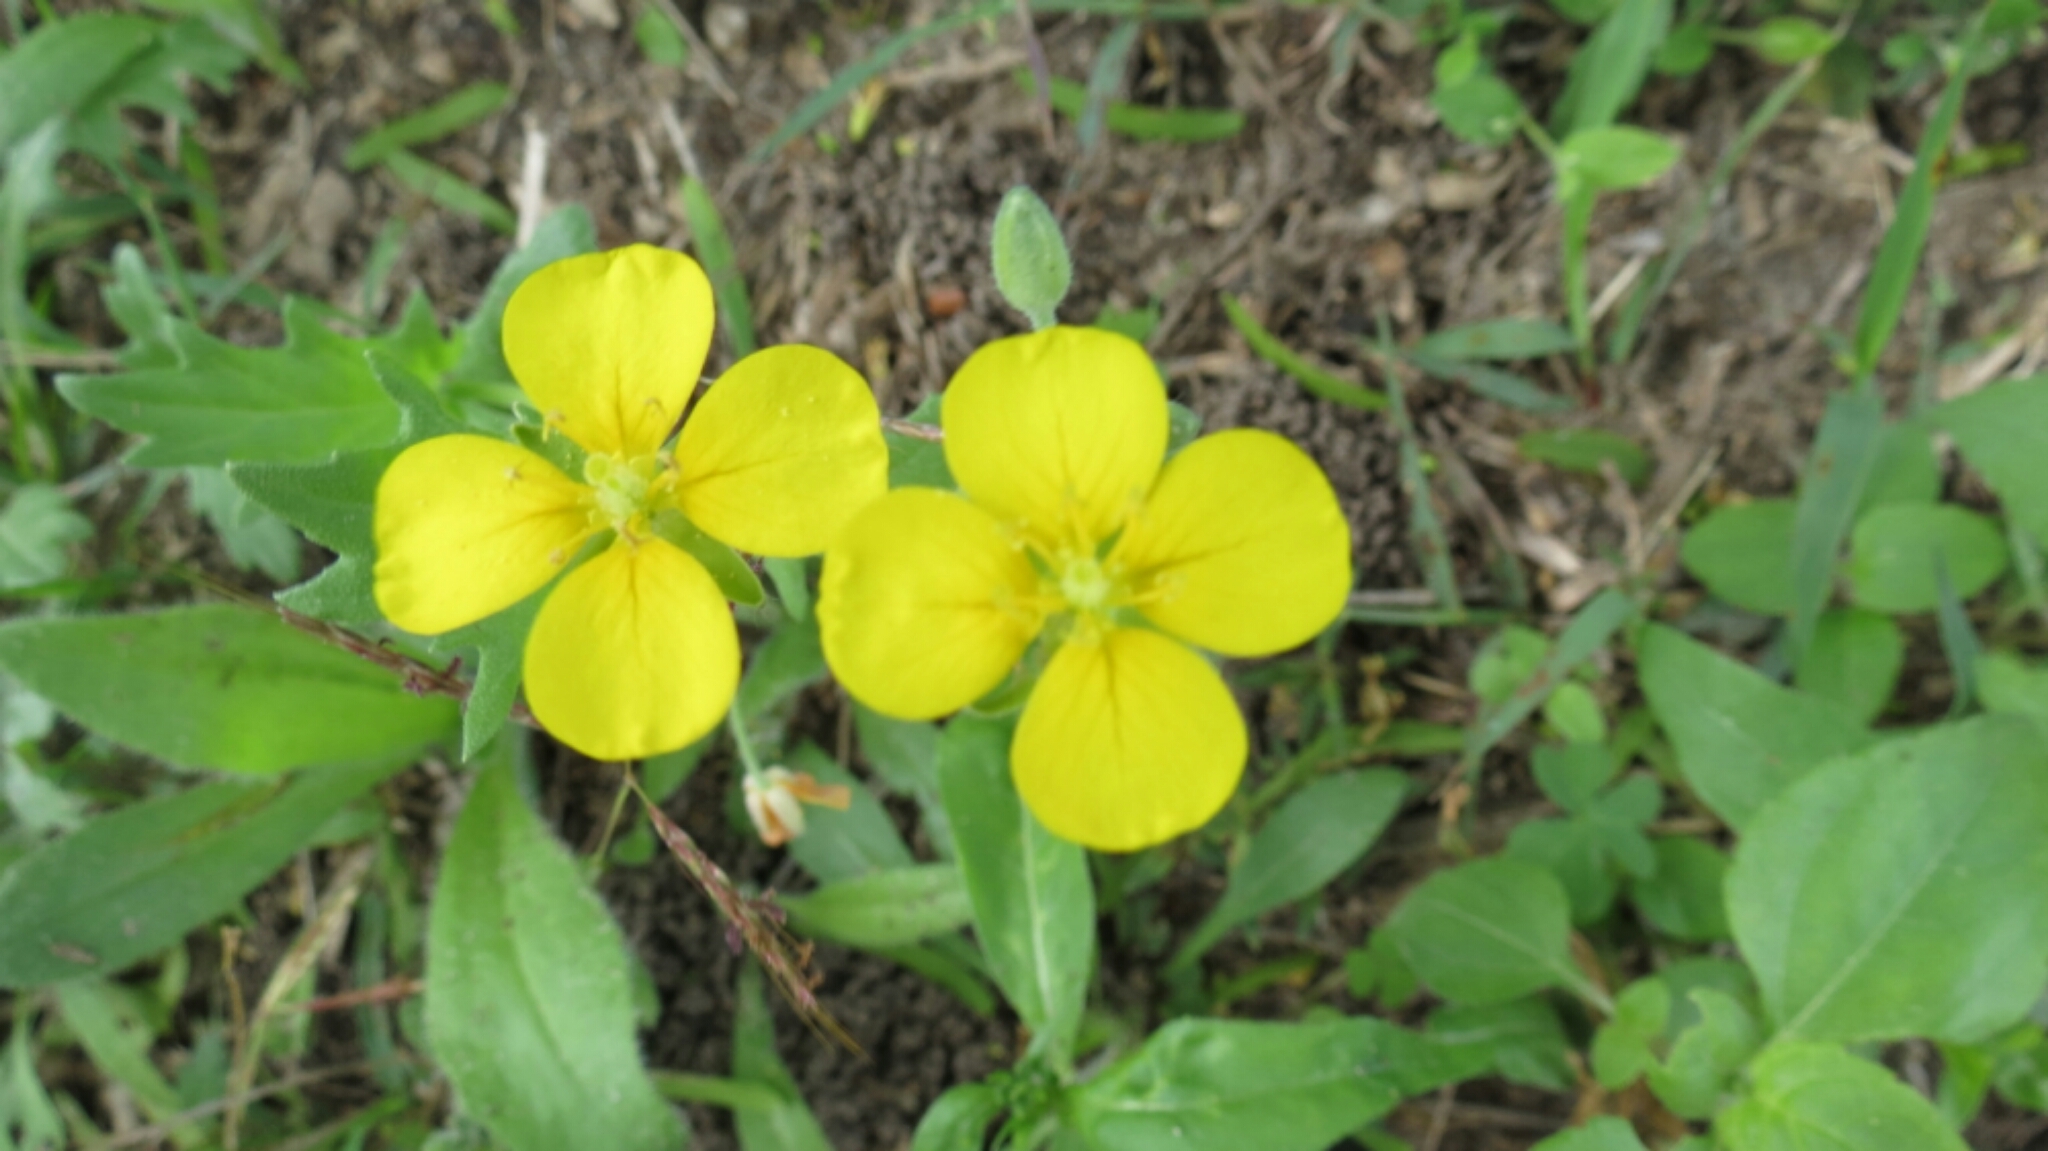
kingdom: Plantae
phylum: Tracheophyta
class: Magnoliopsida
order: Brassicales
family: Brassicaceae
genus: Diplotaxis
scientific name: Diplotaxis muralis
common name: Annual wall-rocket
